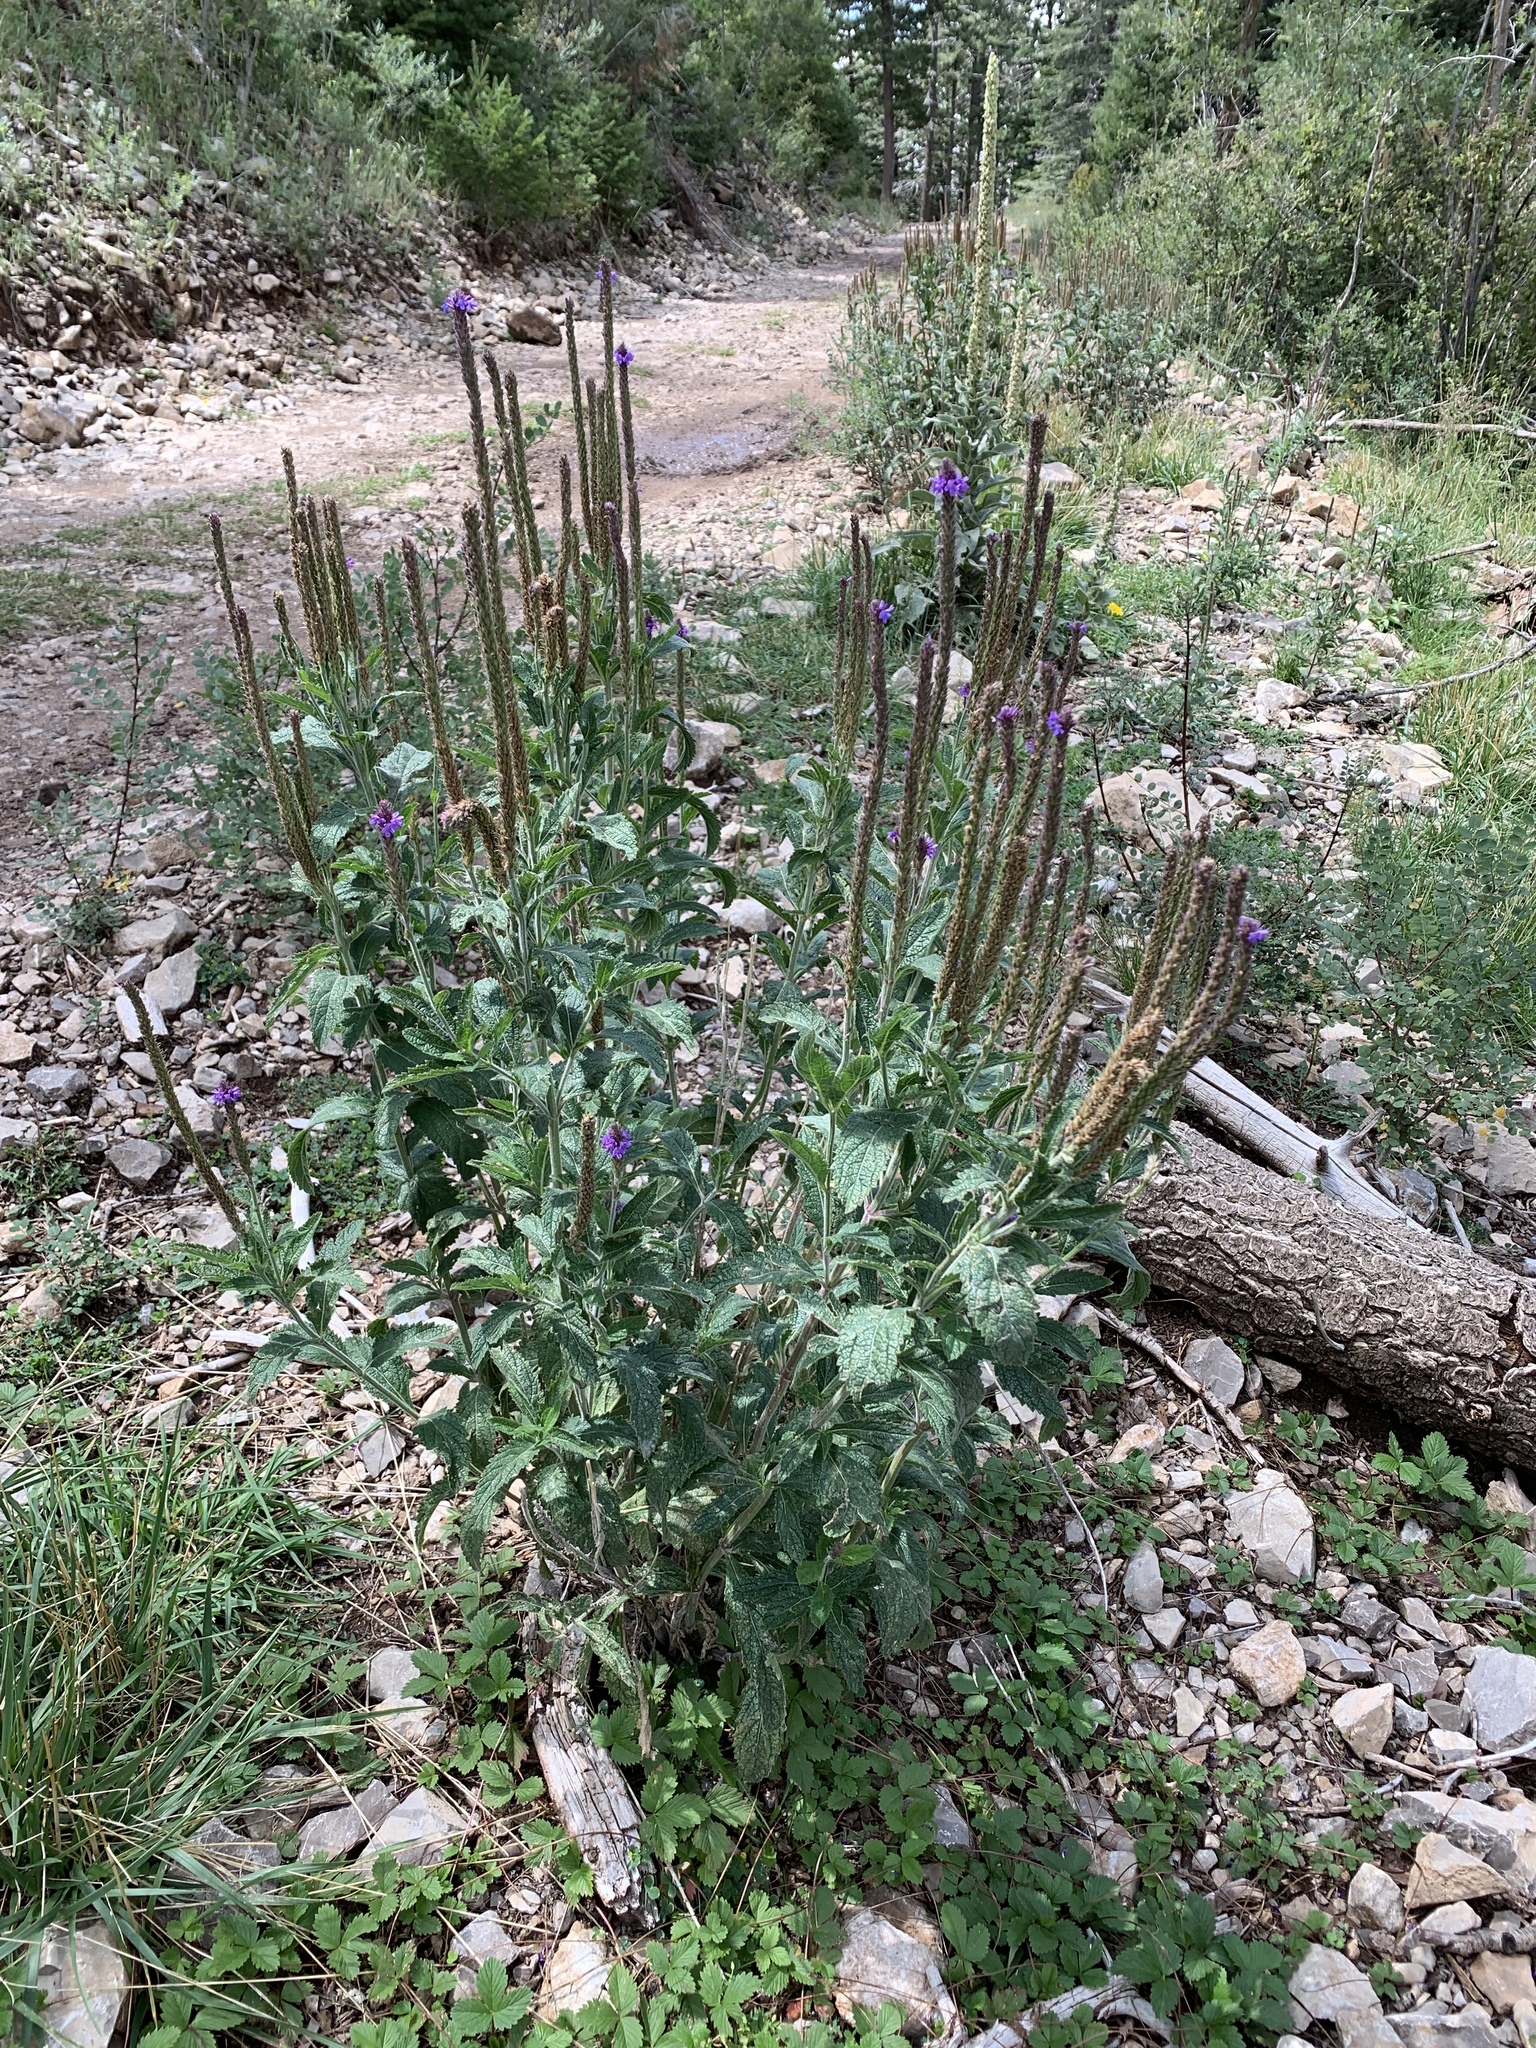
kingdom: Plantae
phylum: Tracheophyta
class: Magnoliopsida
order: Lamiales
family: Verbenaceae
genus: Verbena
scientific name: Verbena macdougalii
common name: New mexico vervain
